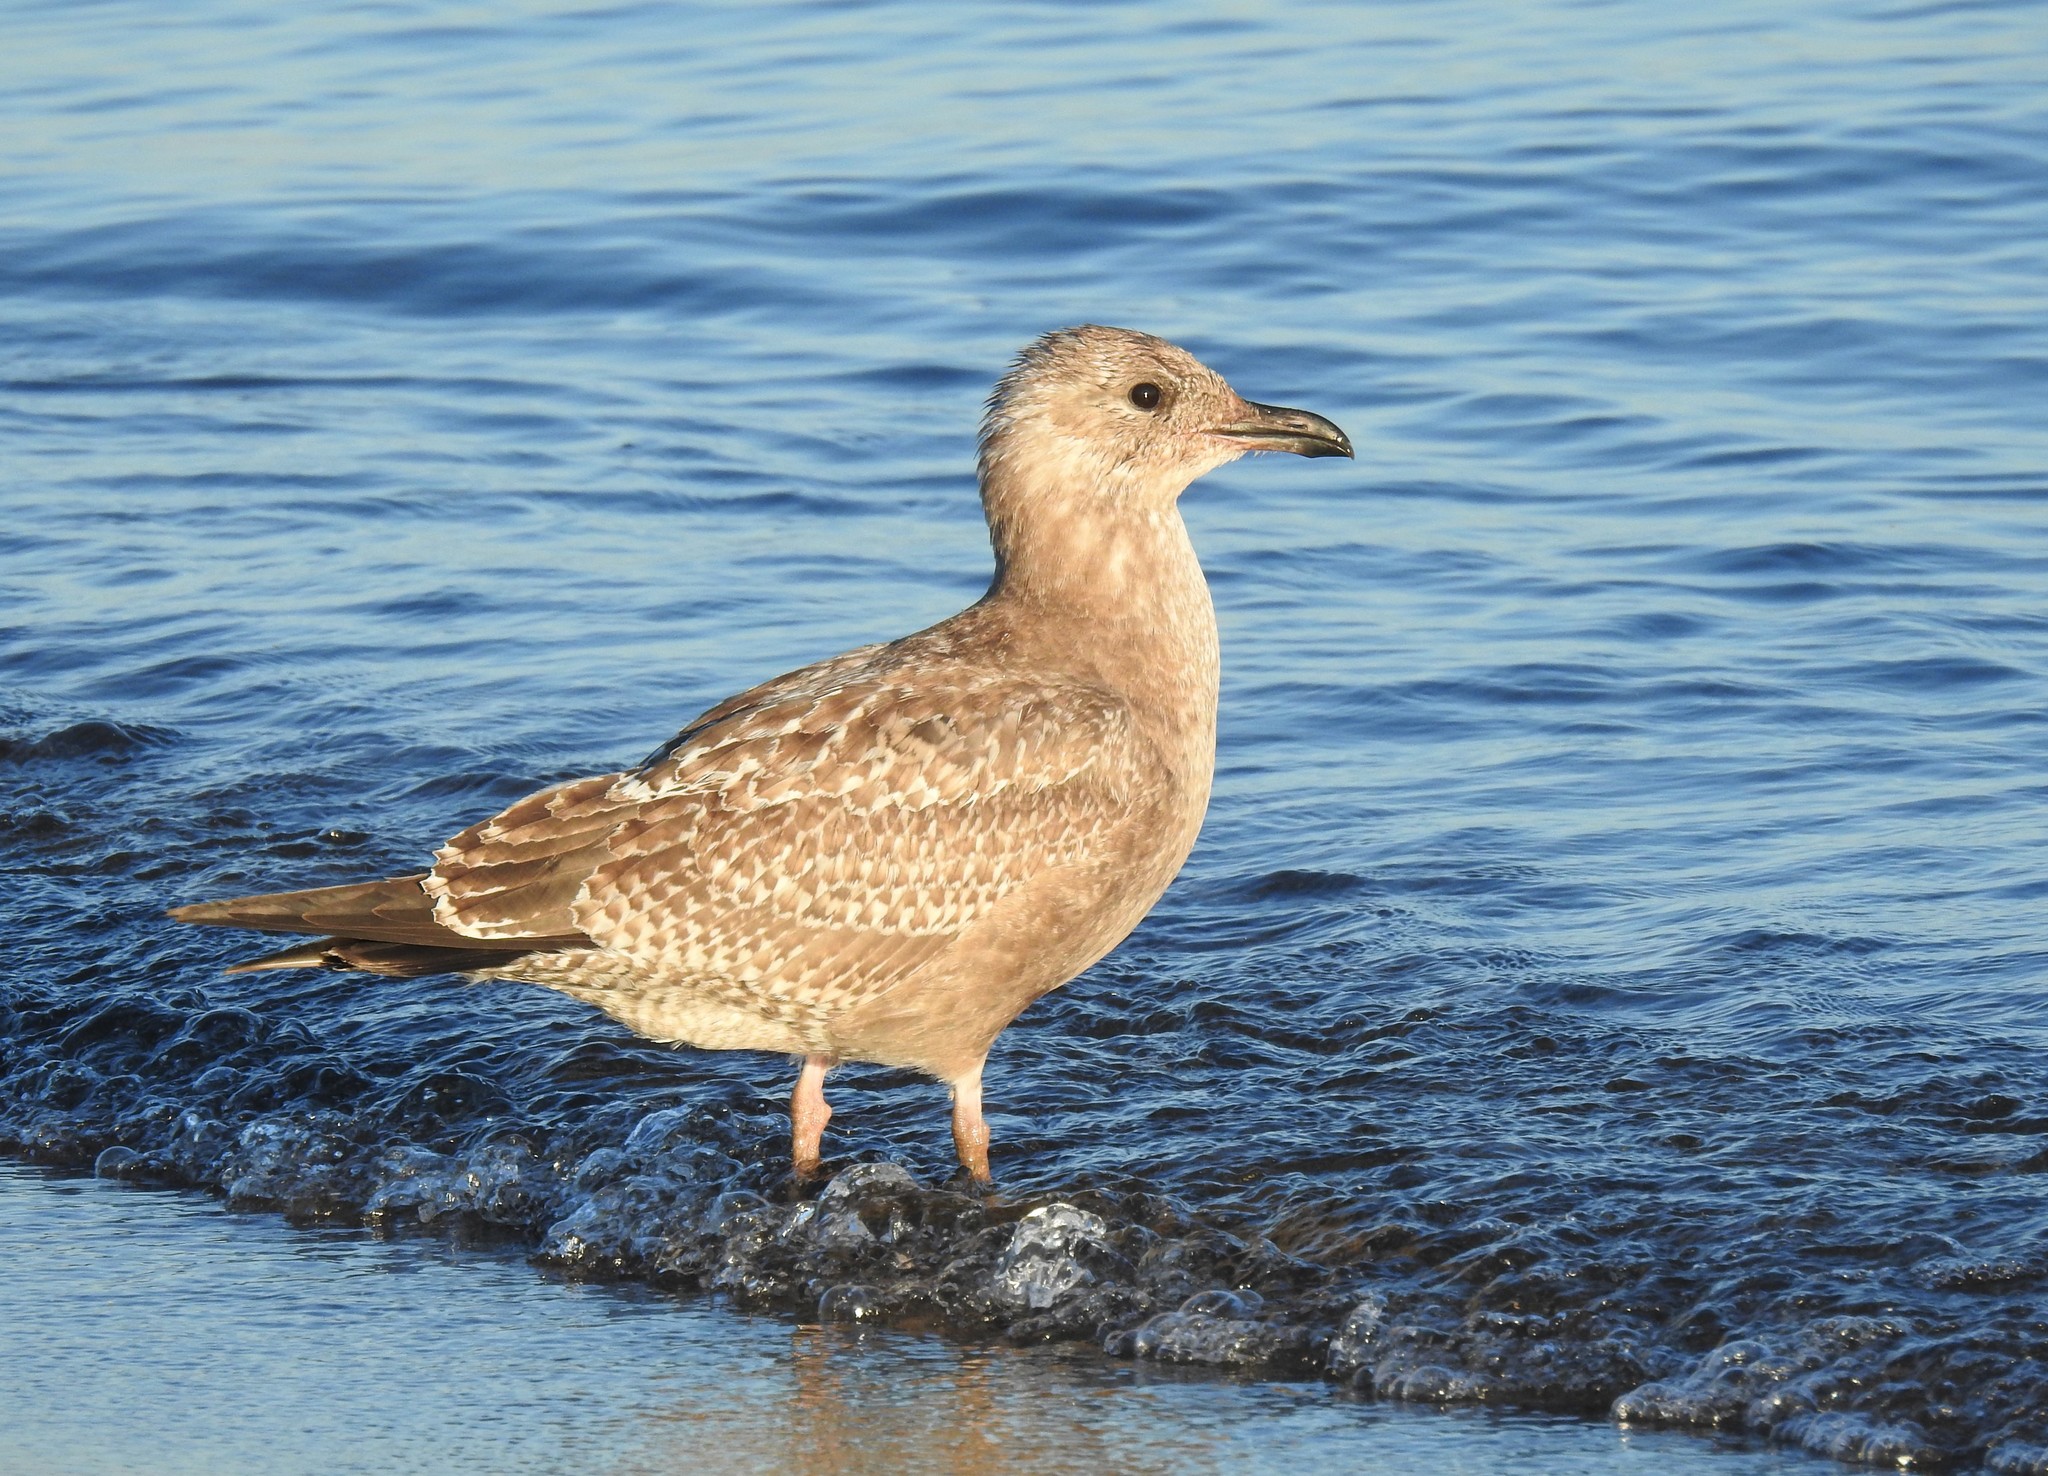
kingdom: Animalia
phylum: Chordata
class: Aves
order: Charadriiformes
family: Laridae
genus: Larus
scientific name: Larus argentatus
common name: Herring gull
